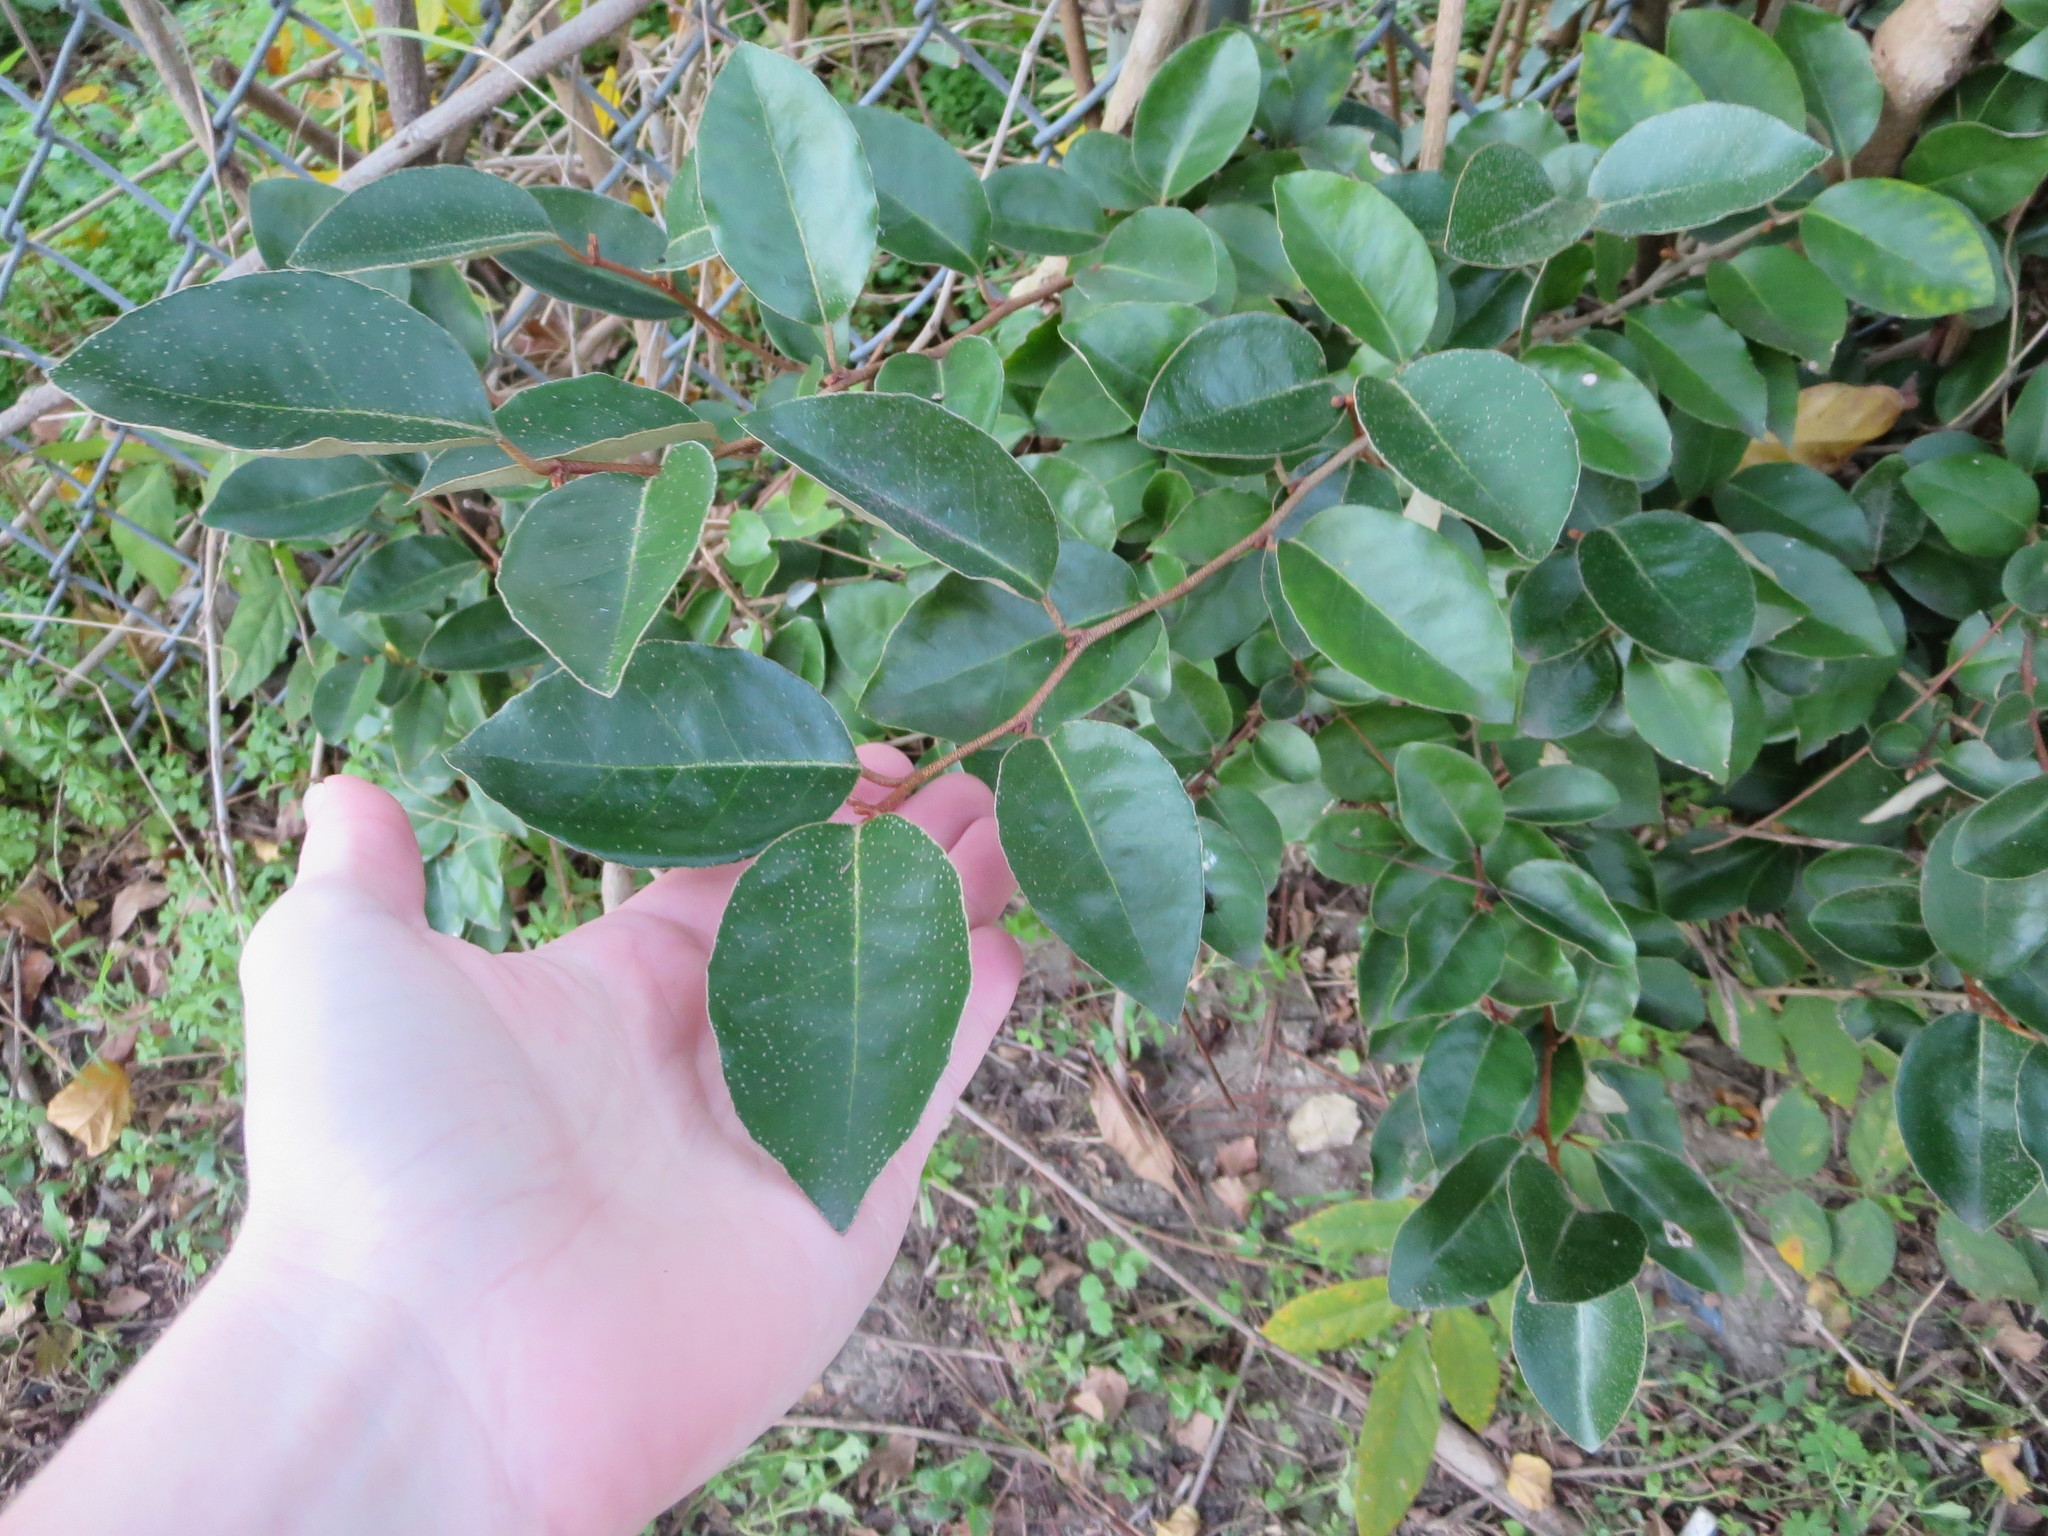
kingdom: Plantae
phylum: Tracheophyta
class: Magnoliopsida
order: Rosales
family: Elaeagnaceae
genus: Elaeagnus
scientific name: Elaeagnus pungens
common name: Spiny oleaster
